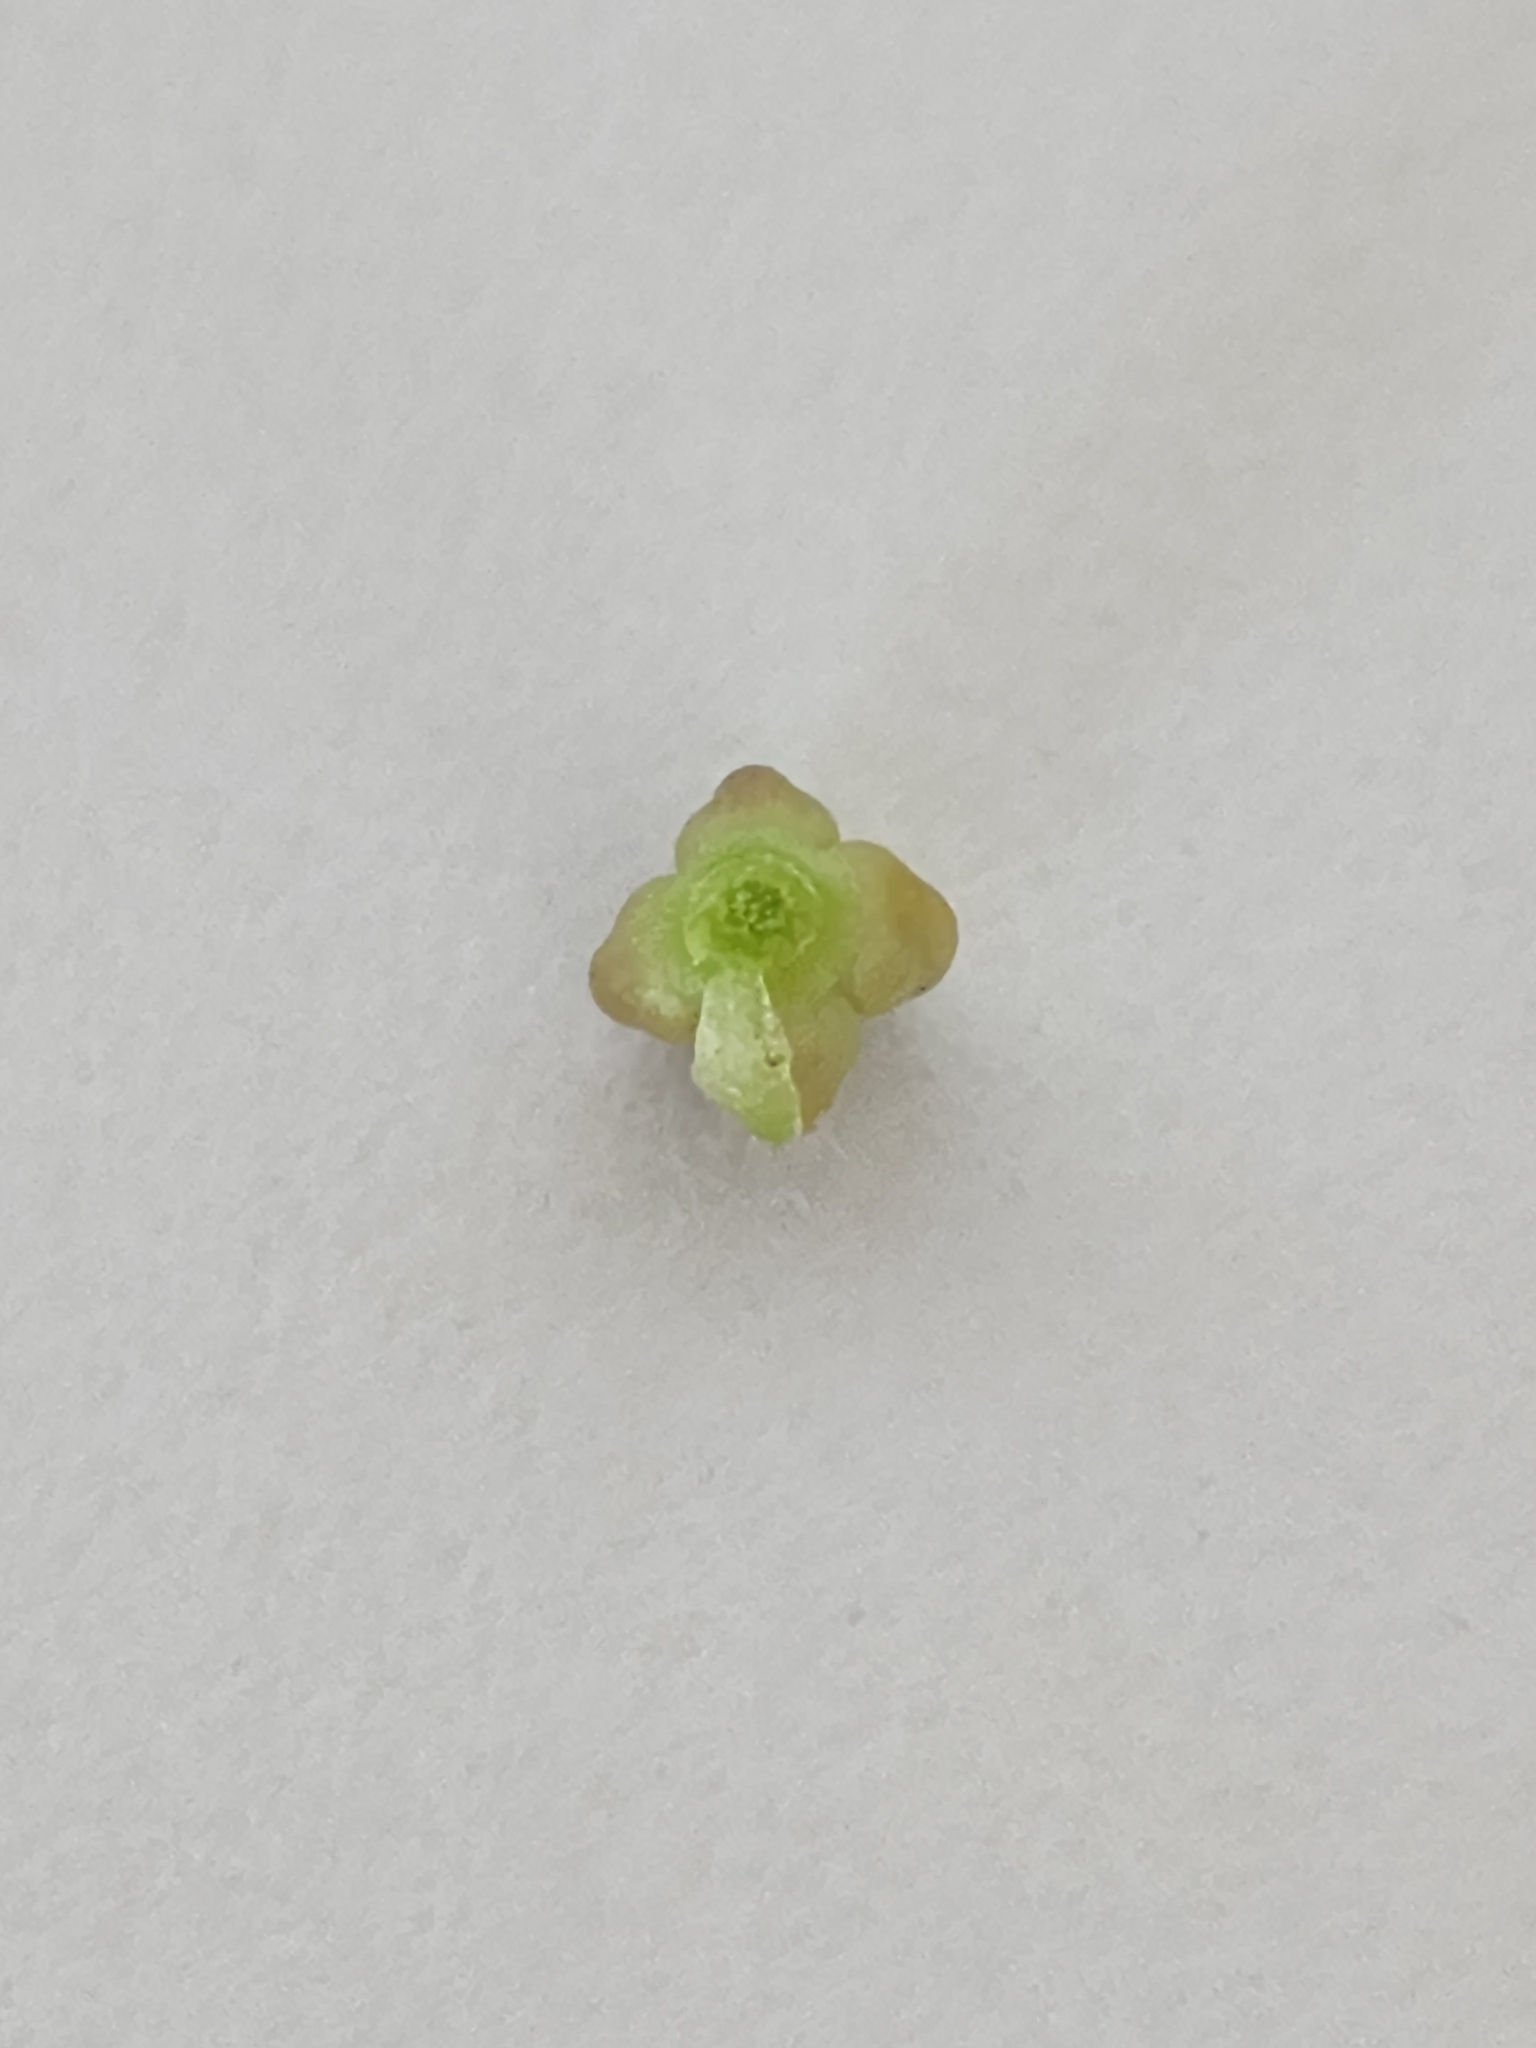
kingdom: Plantae
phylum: Tracheophyta
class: Magnoliopsida
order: Lamiales
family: Verbenaceae
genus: Verbena
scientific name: Verbena tumidula
